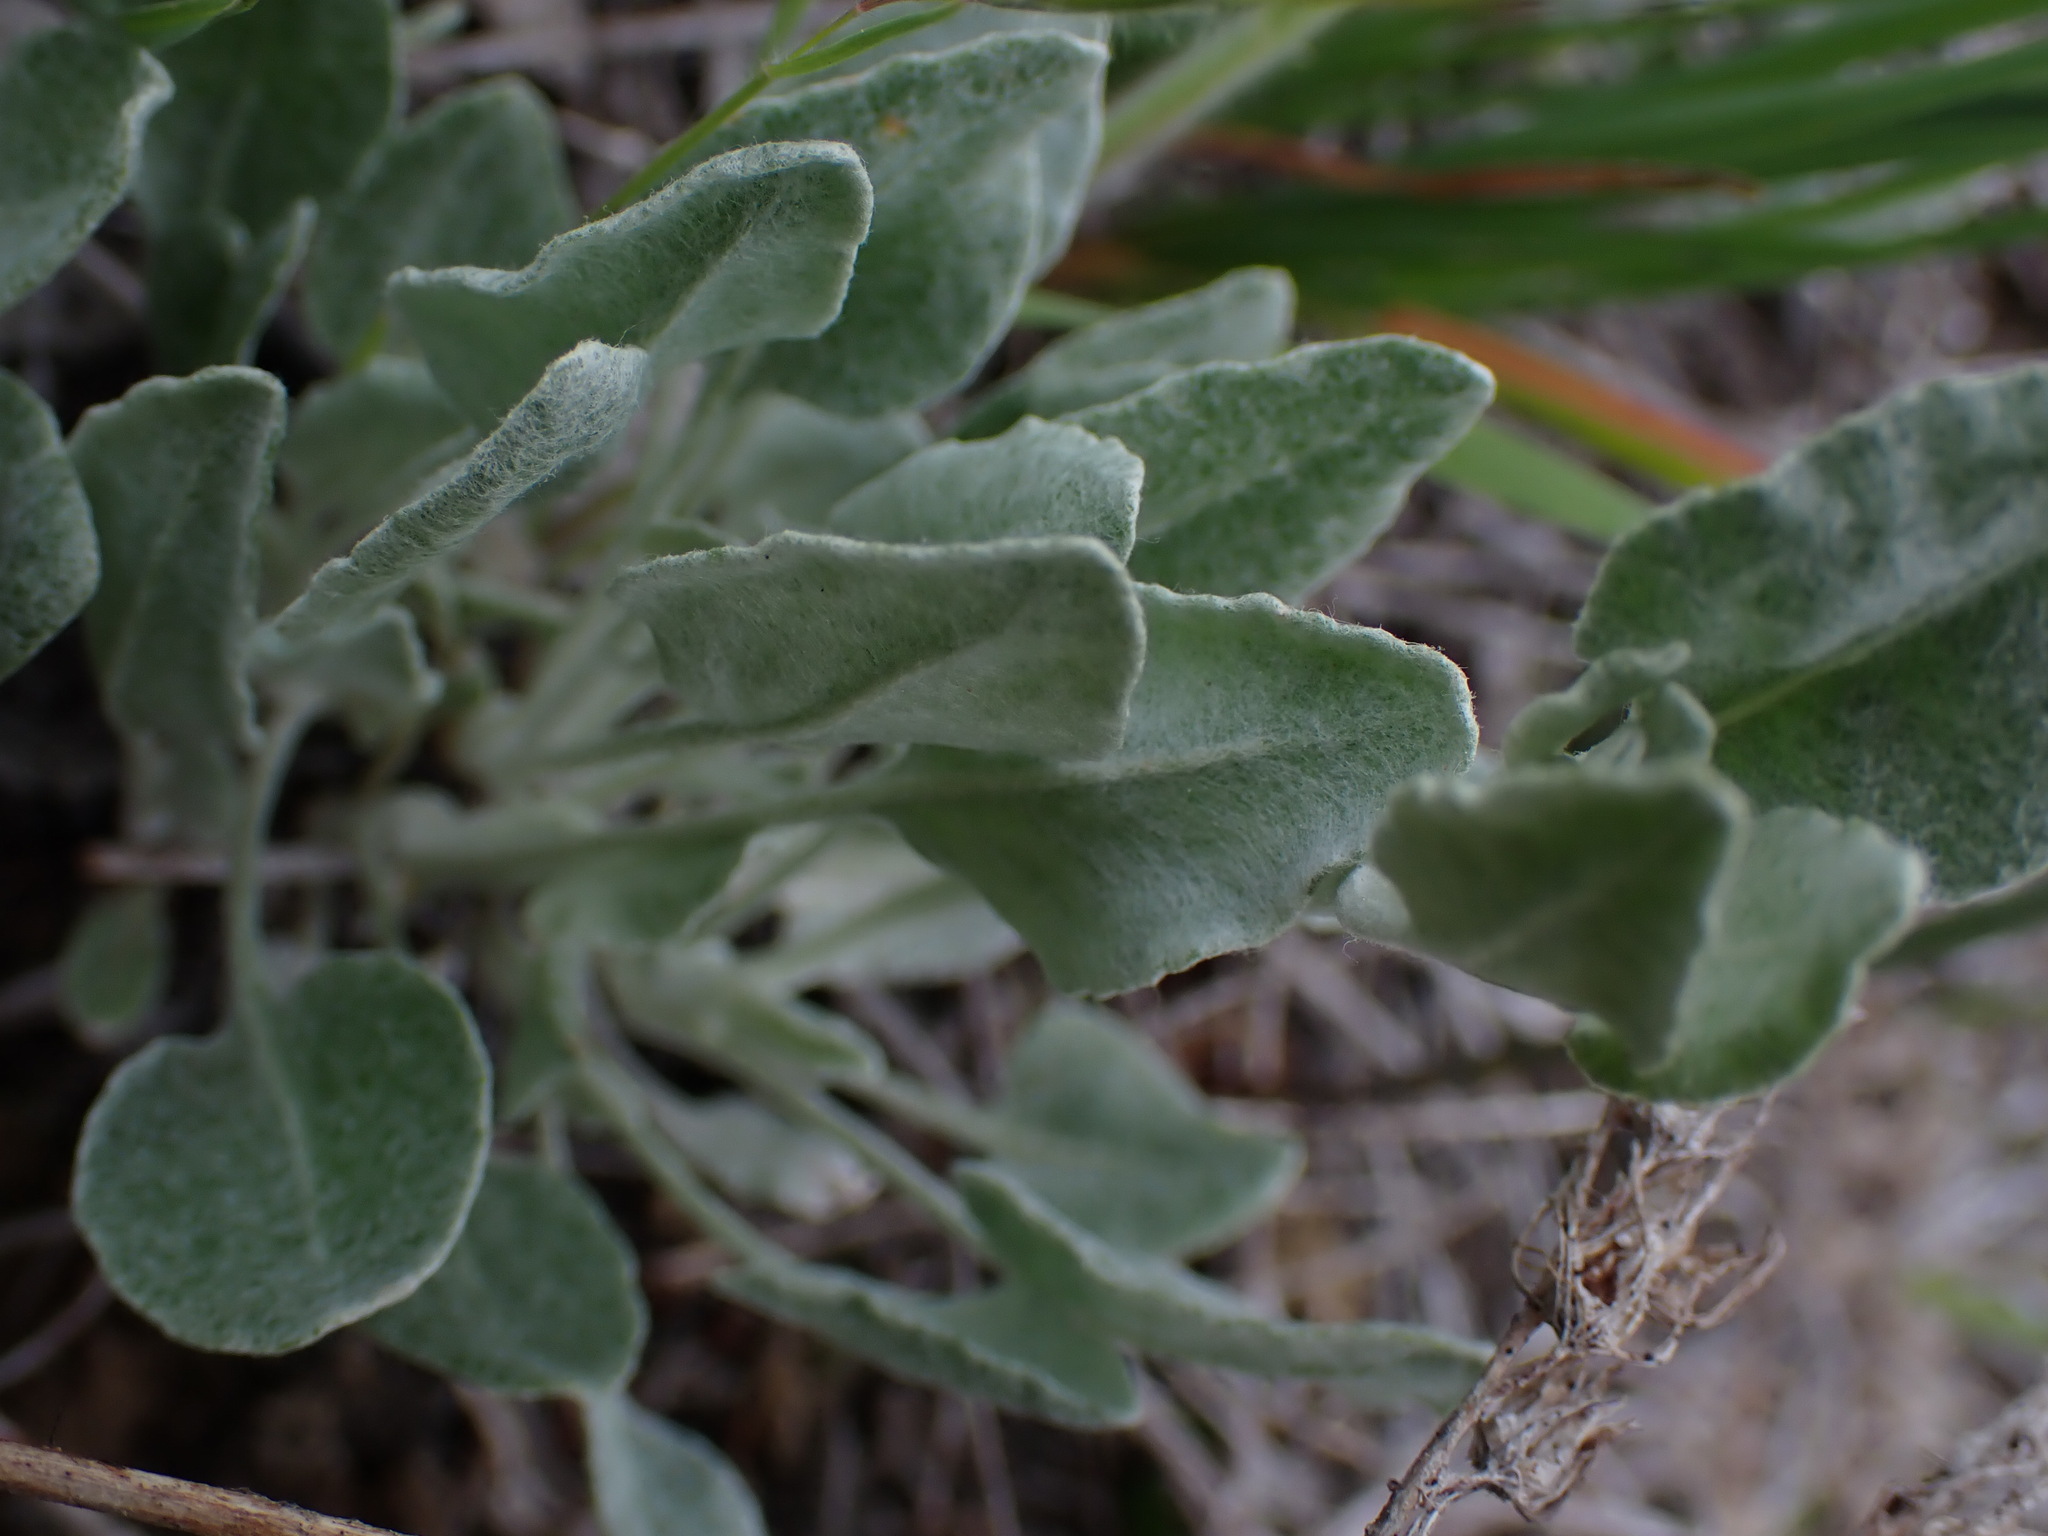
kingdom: Plantae
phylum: Tracheophyta
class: Magnoliopsida
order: Asterales
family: Asteraceae
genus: Packera
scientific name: Packera cana
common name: Woolly groundsel
